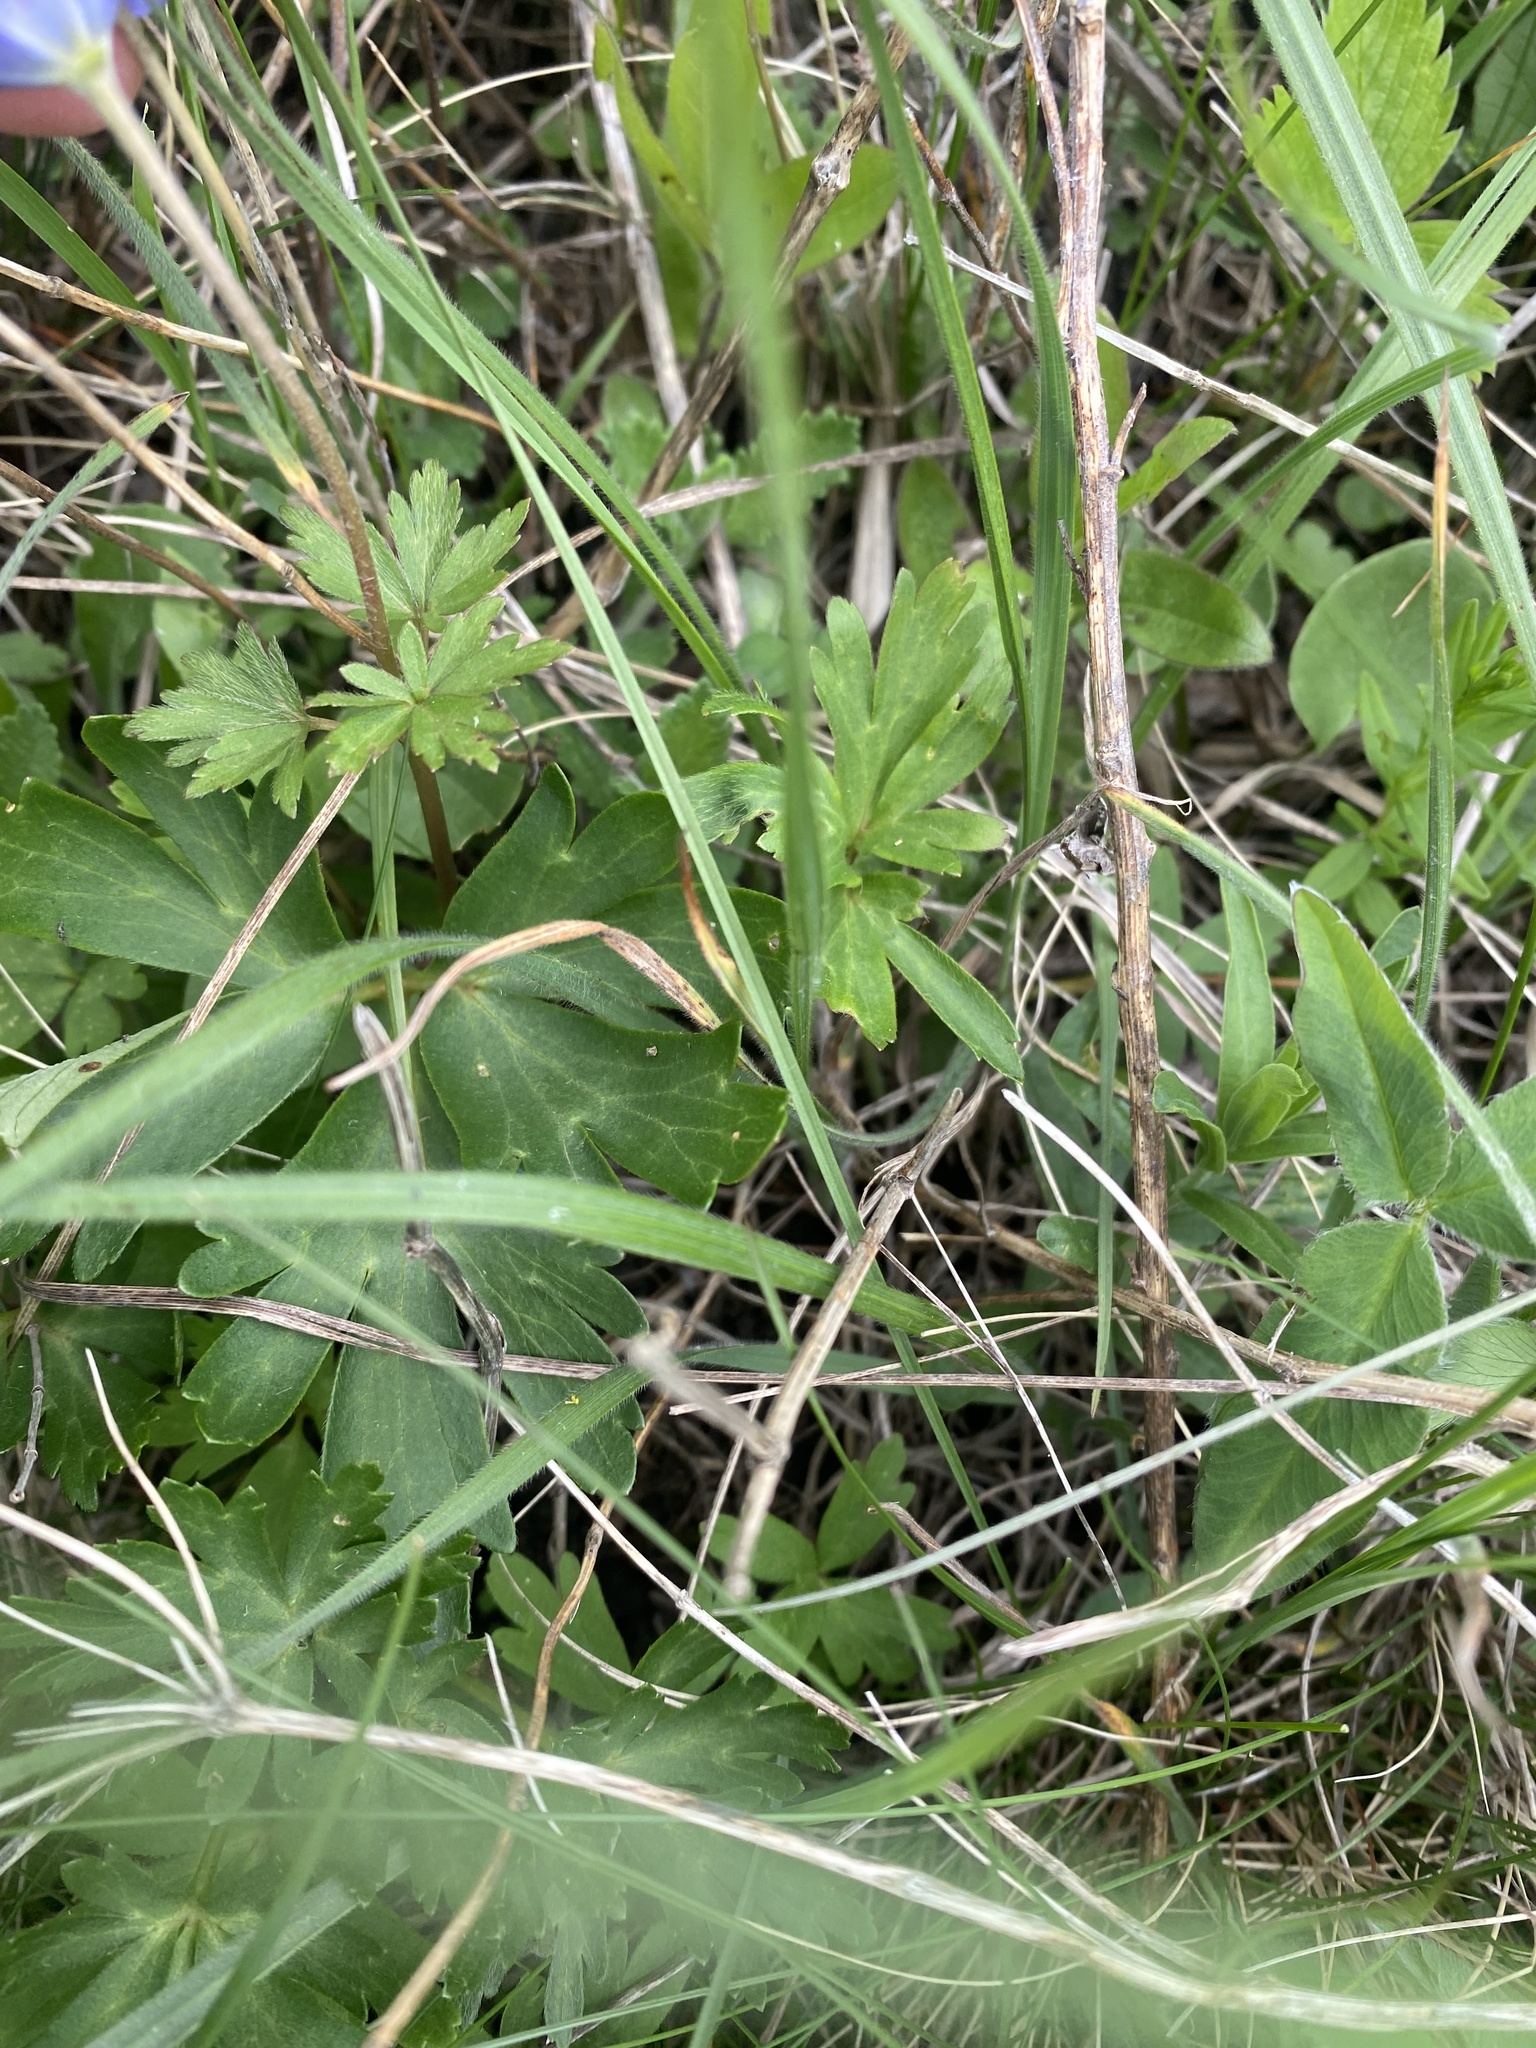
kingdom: Plantae
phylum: Tracheophyta
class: Magnoliopsida
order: Ranunculales
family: Ranunculaceae
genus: Anemone
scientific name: Anemone blanda
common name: Balkan anemone
